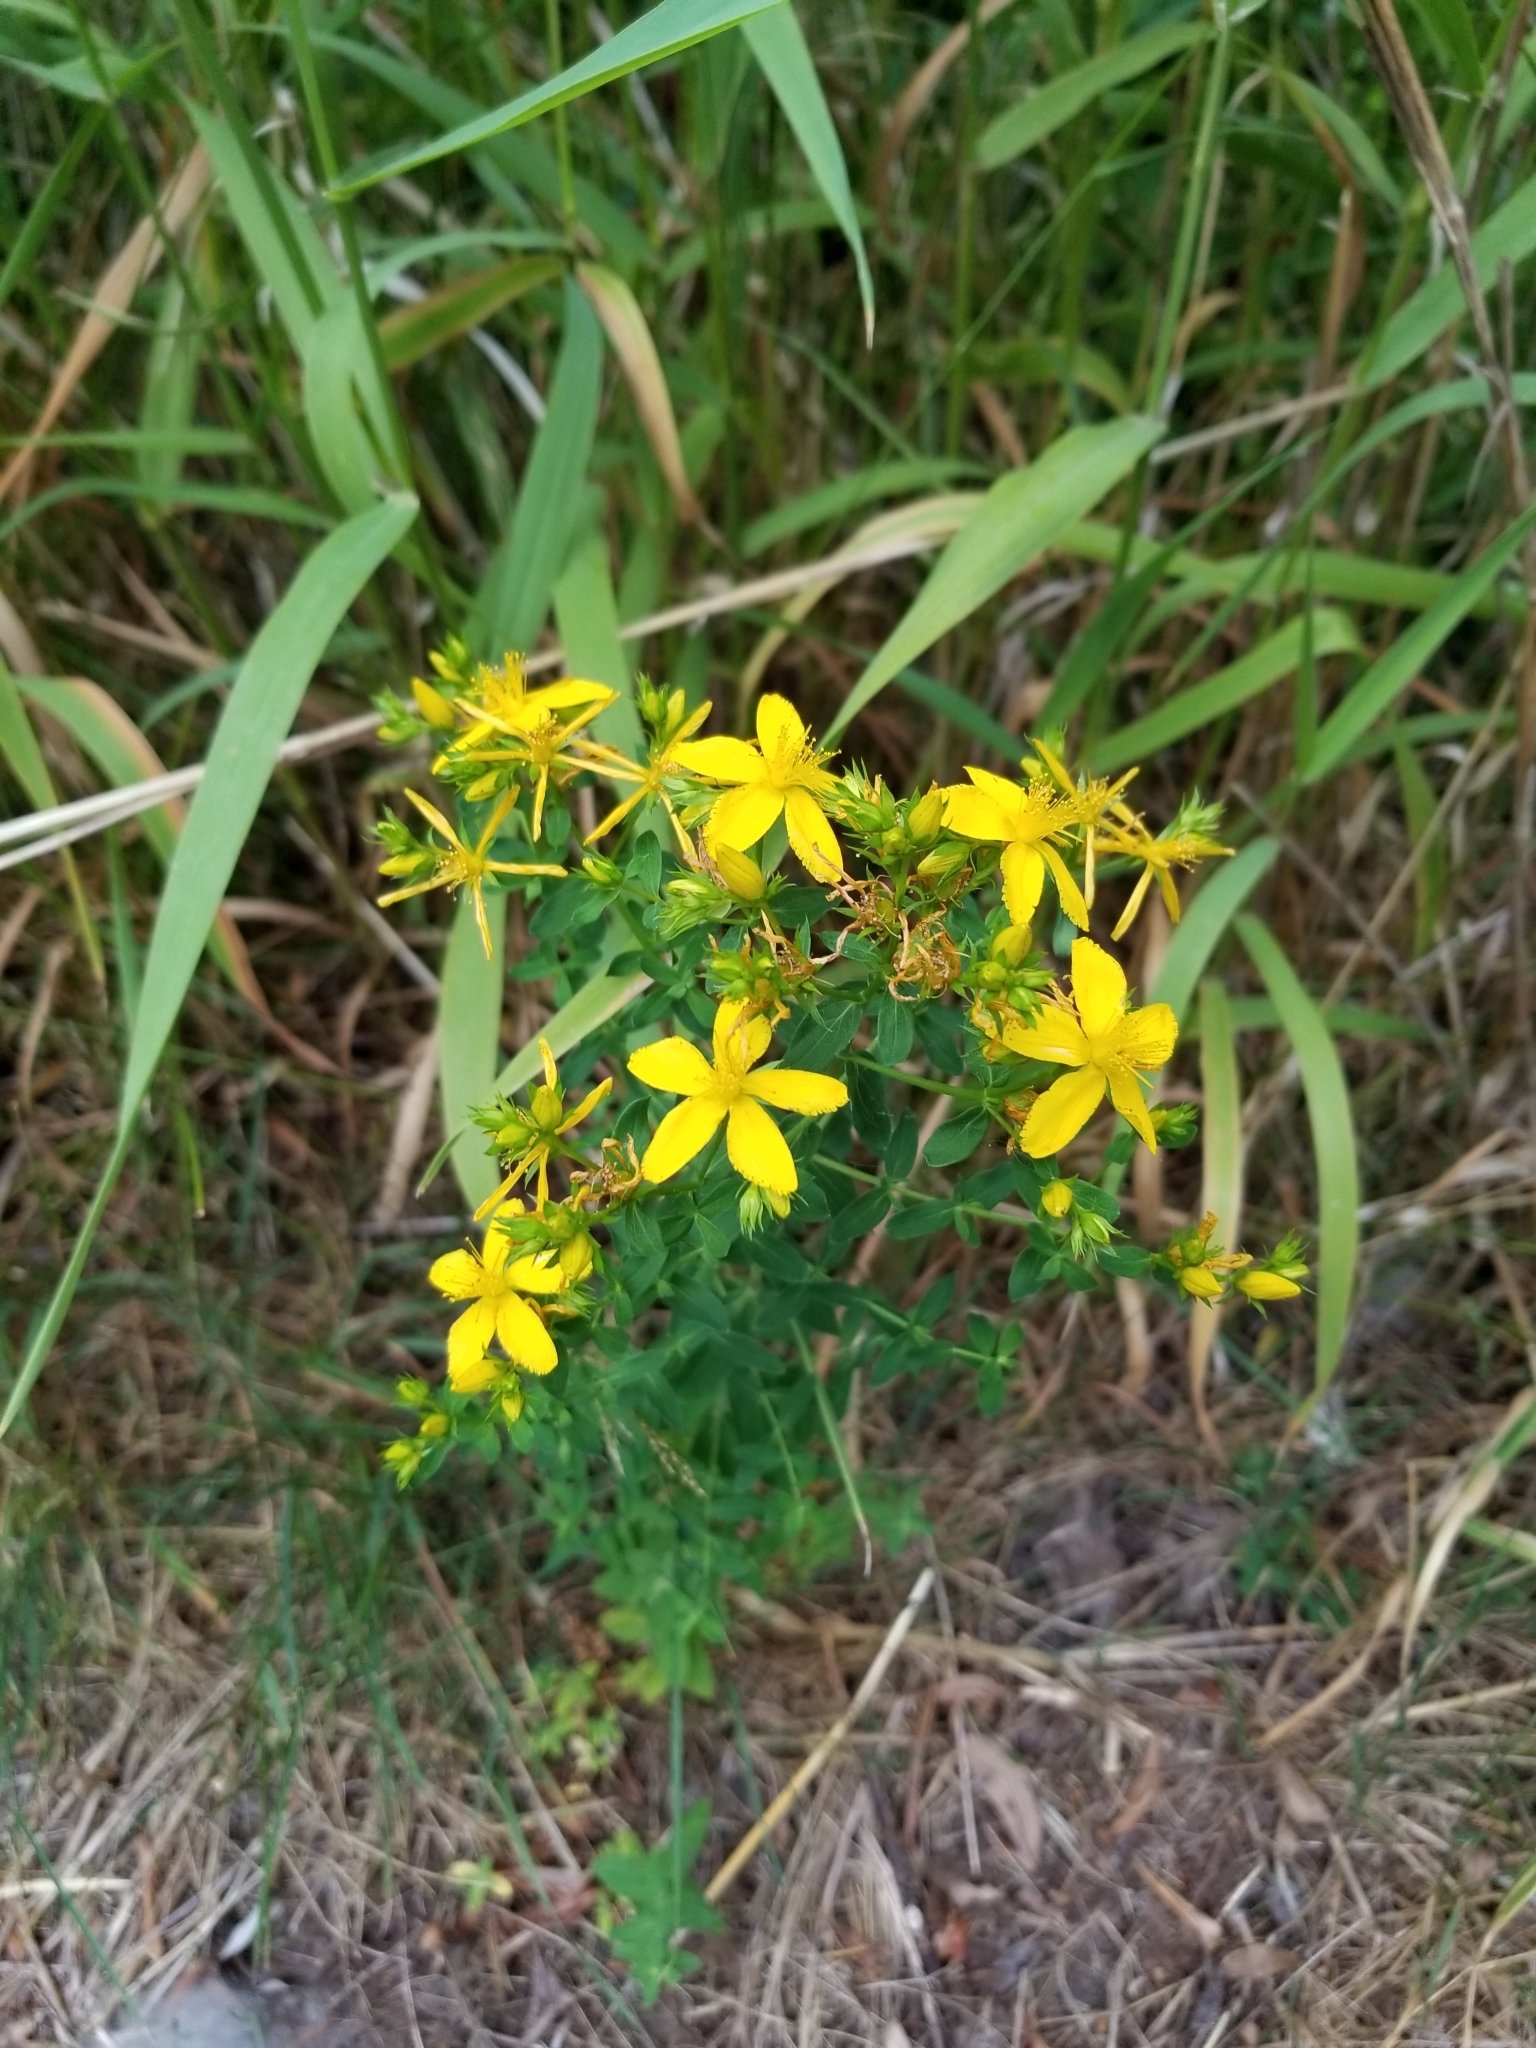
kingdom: Plantae
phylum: Tracheophyta
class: Magnoliopsida
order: Malpighiales
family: Hypericaceae
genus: Hypericum
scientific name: Hypericum perforatum
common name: Common st. johnswort
